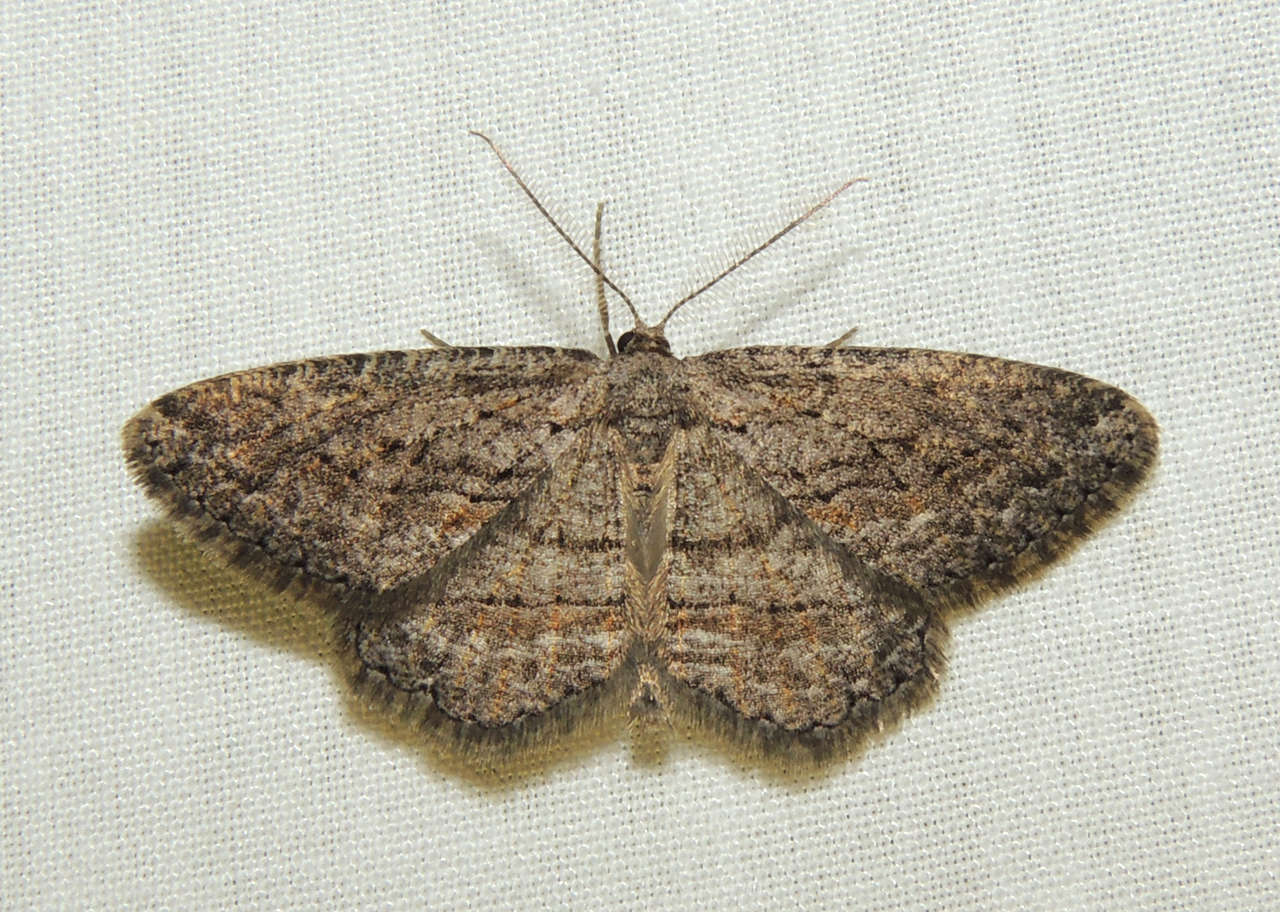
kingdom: Animalia
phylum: Arthropoda
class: Insecta
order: Lepidoptera
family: Geometridae
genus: Zermizinga
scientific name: Zermizinga sinuata
